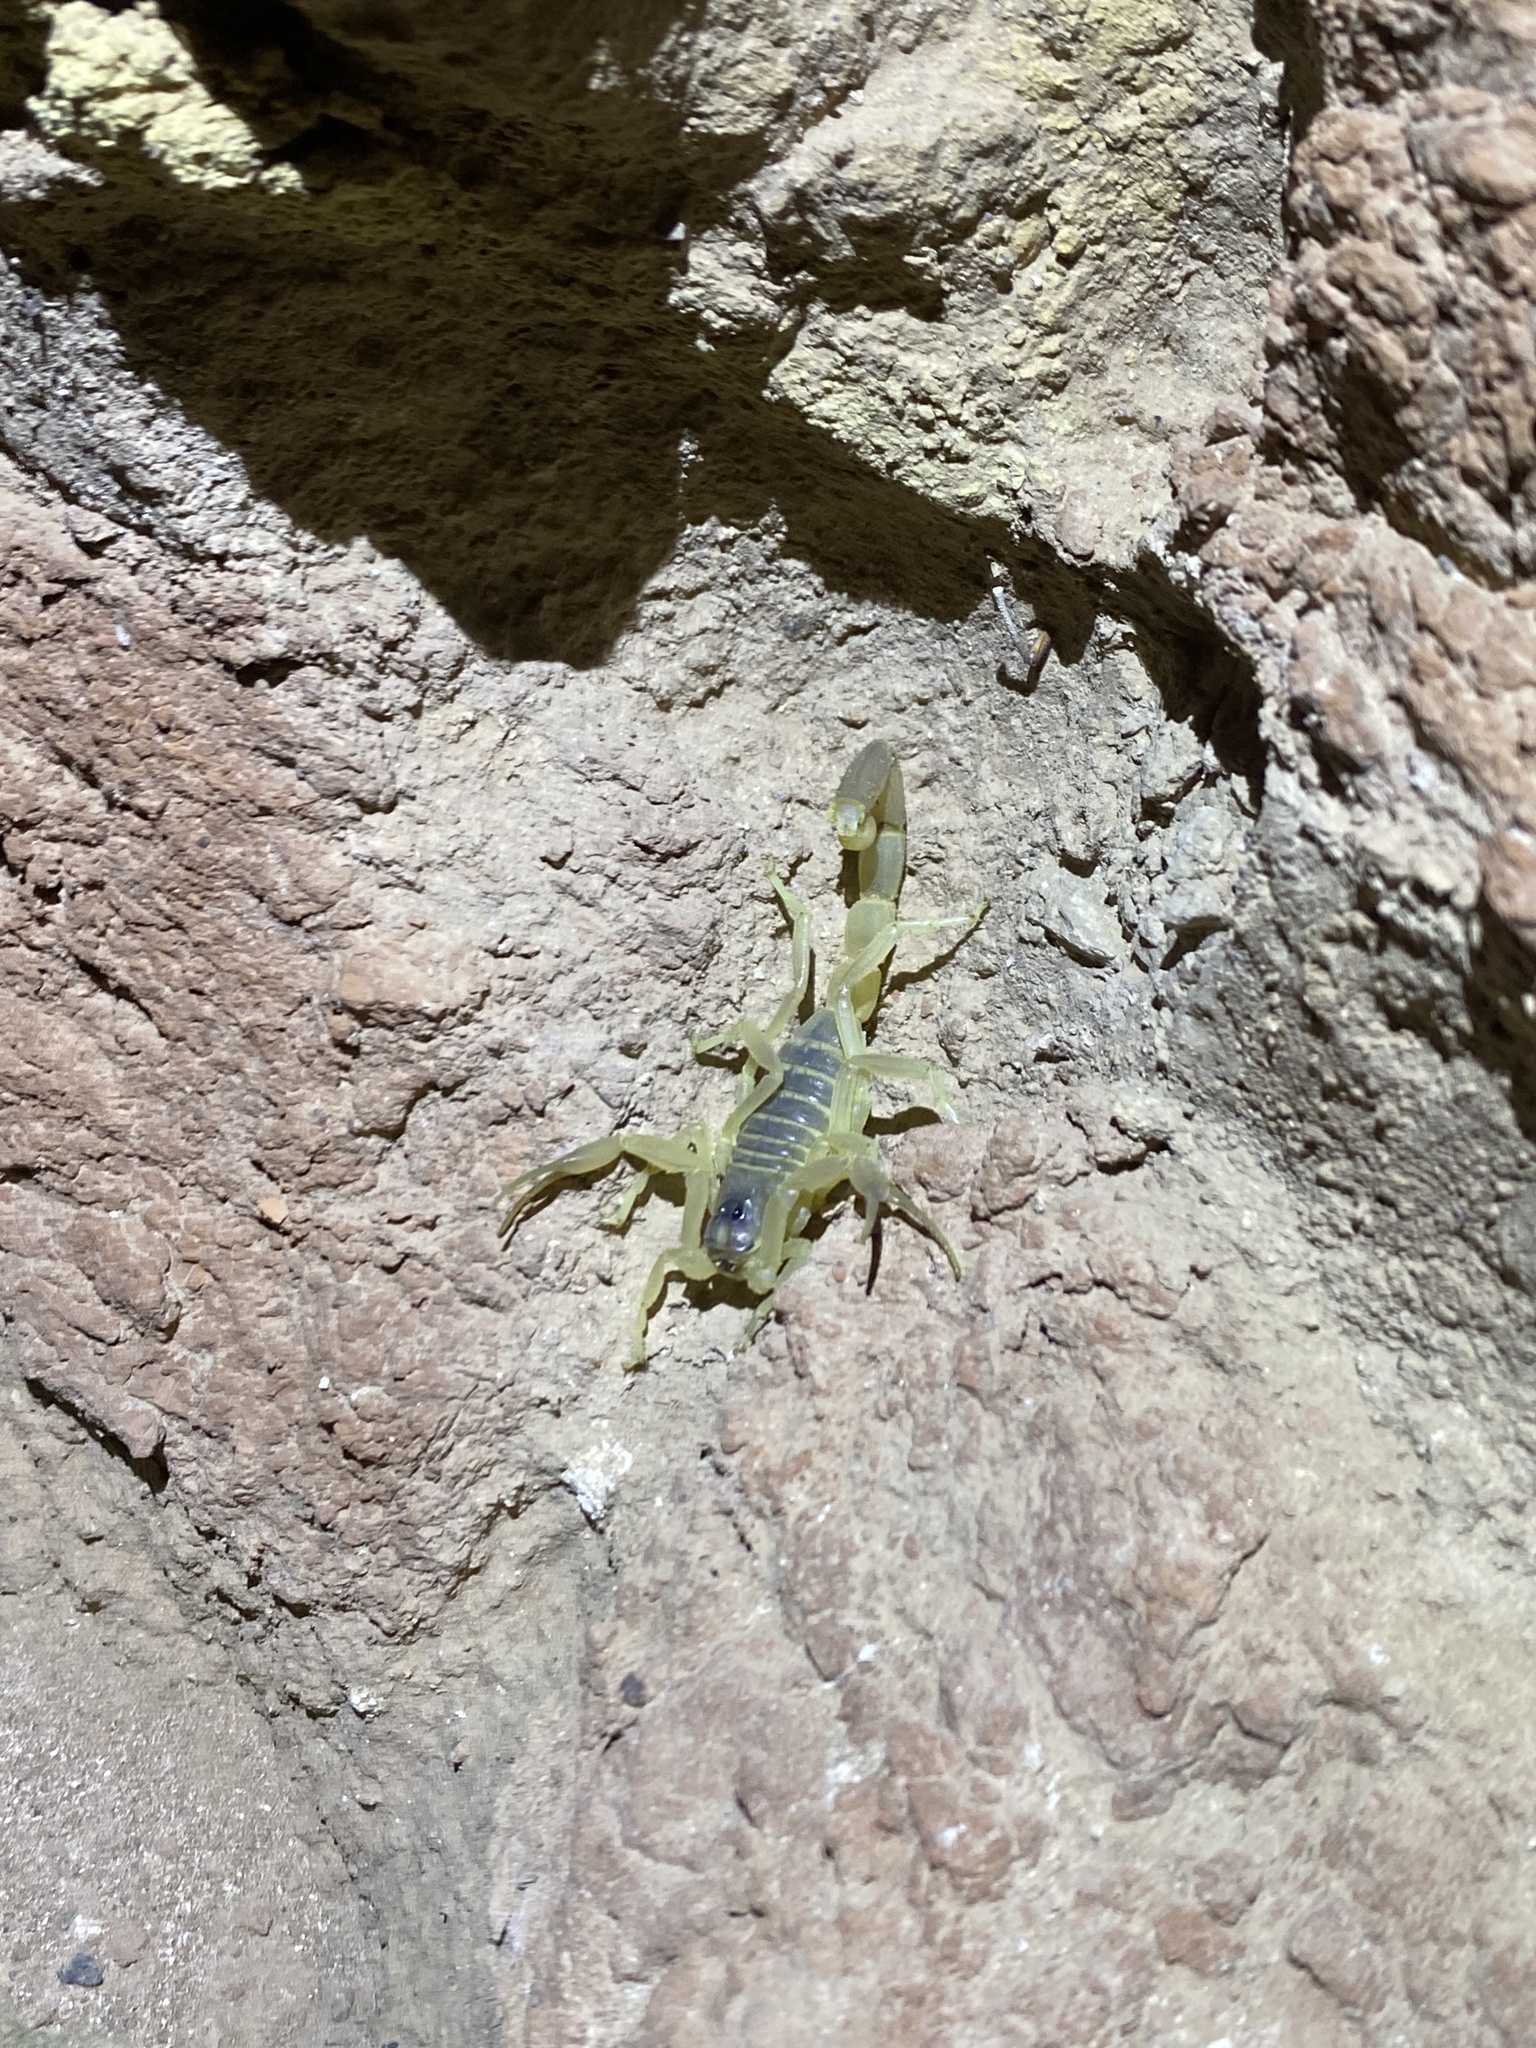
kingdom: Animalia
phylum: Arthropoda
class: Arachnida
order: Scorpiones
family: Buthidae
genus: Odontobuthus
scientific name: Odontobuthus doriae
